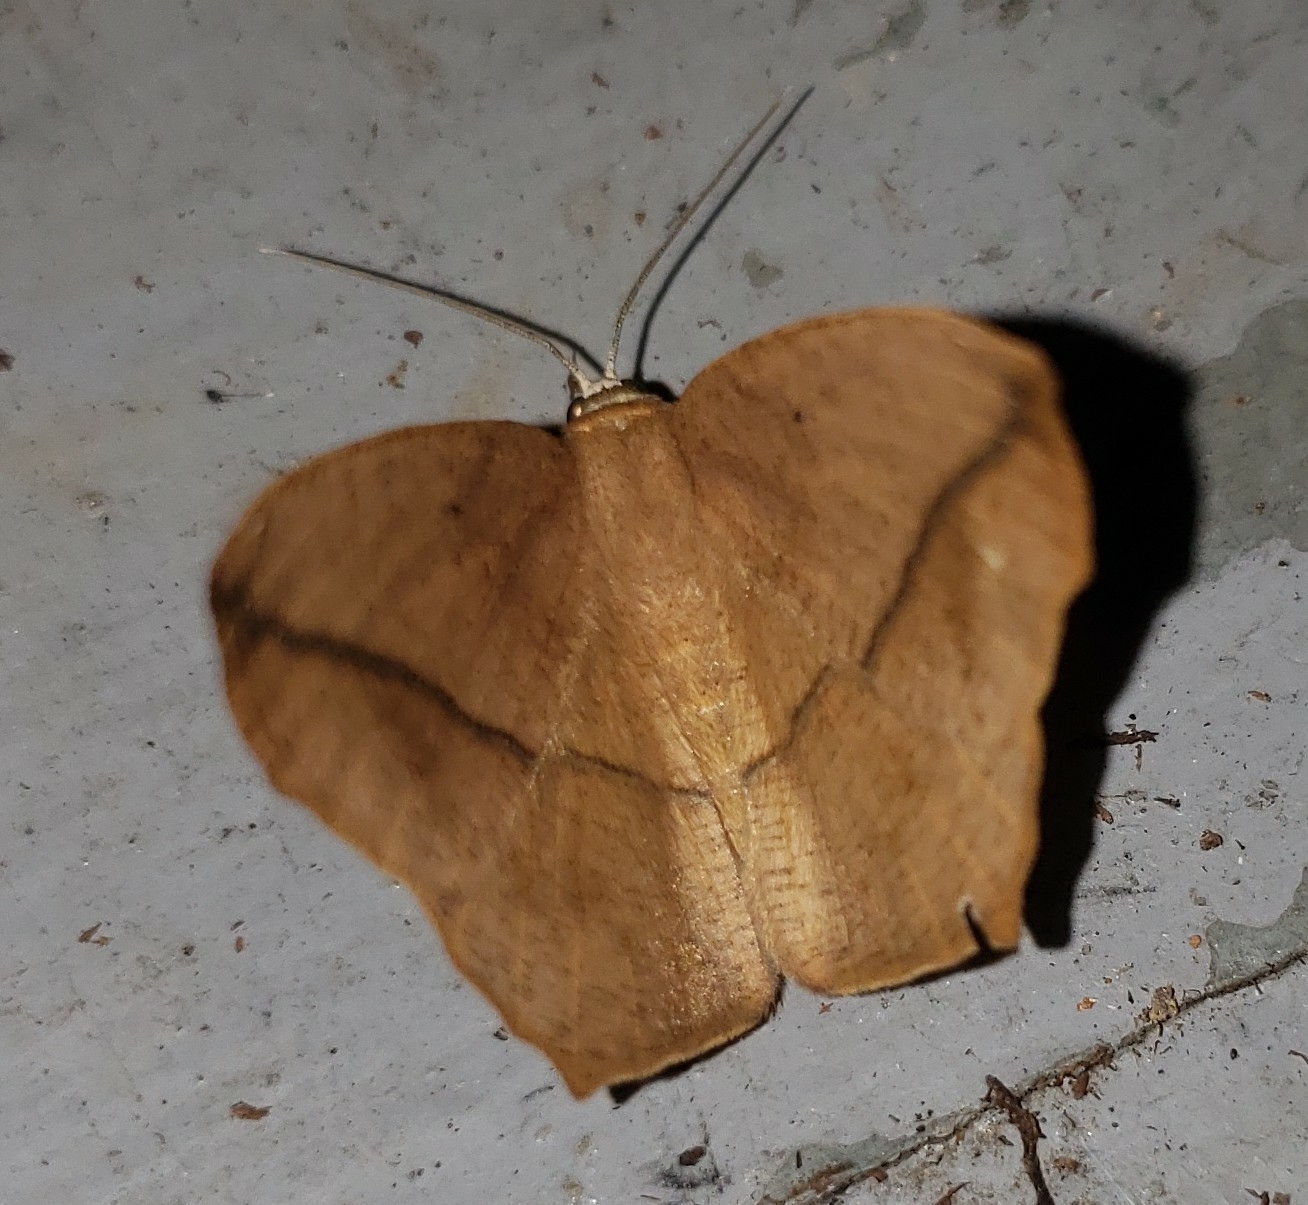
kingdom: Animalia
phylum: Arthropoda
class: Insecta
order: Lepidoptera
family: Geometridae
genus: Prochoerodes
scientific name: Prochoerodes lineola
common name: Large maple spanworm
